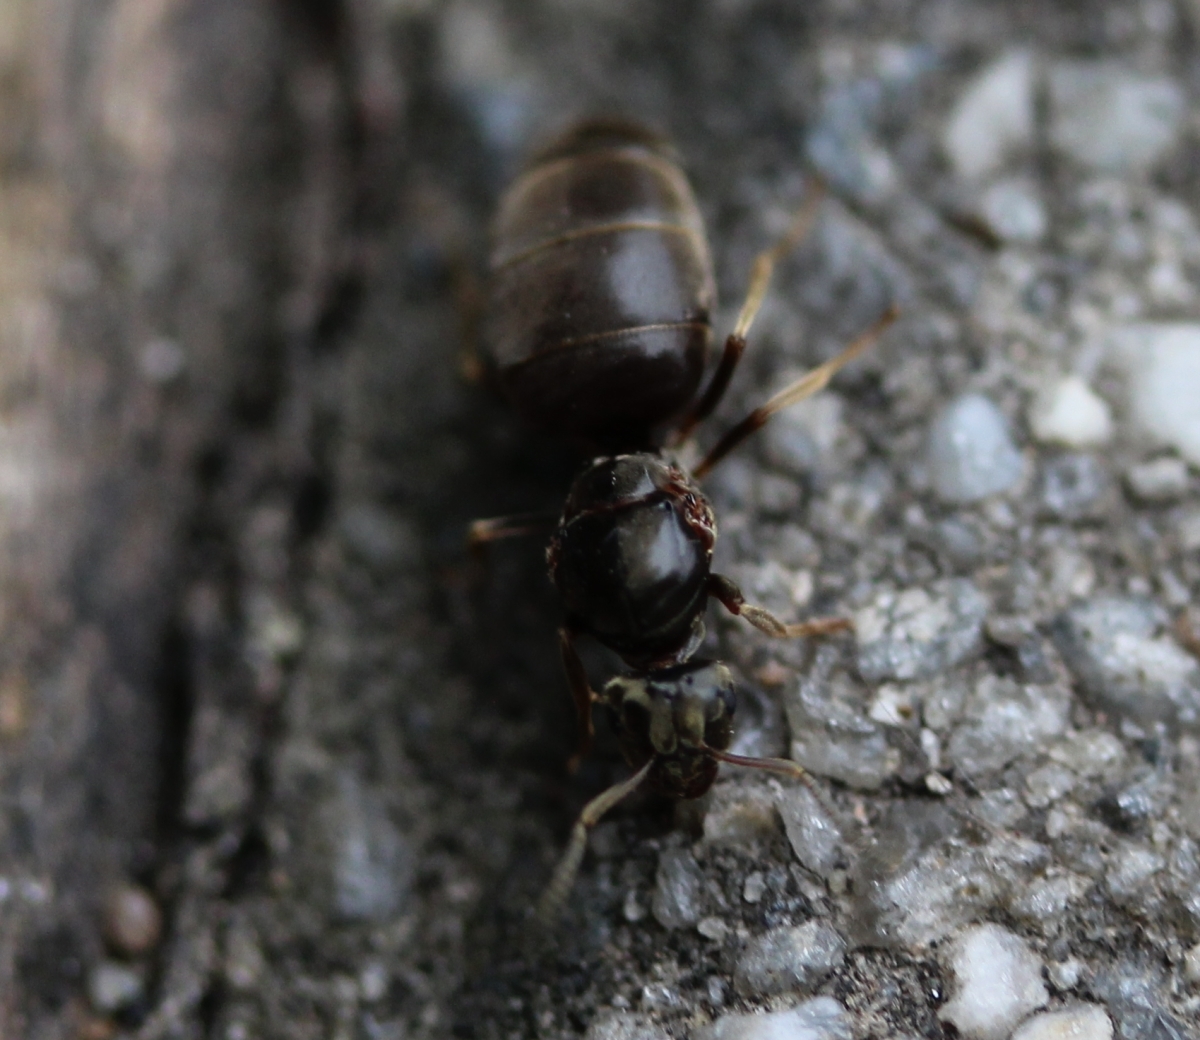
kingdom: Animalia
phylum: Arthropoda
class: Insecta
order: Hymenoptera
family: Formicidae
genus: Lasius
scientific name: Lasius
